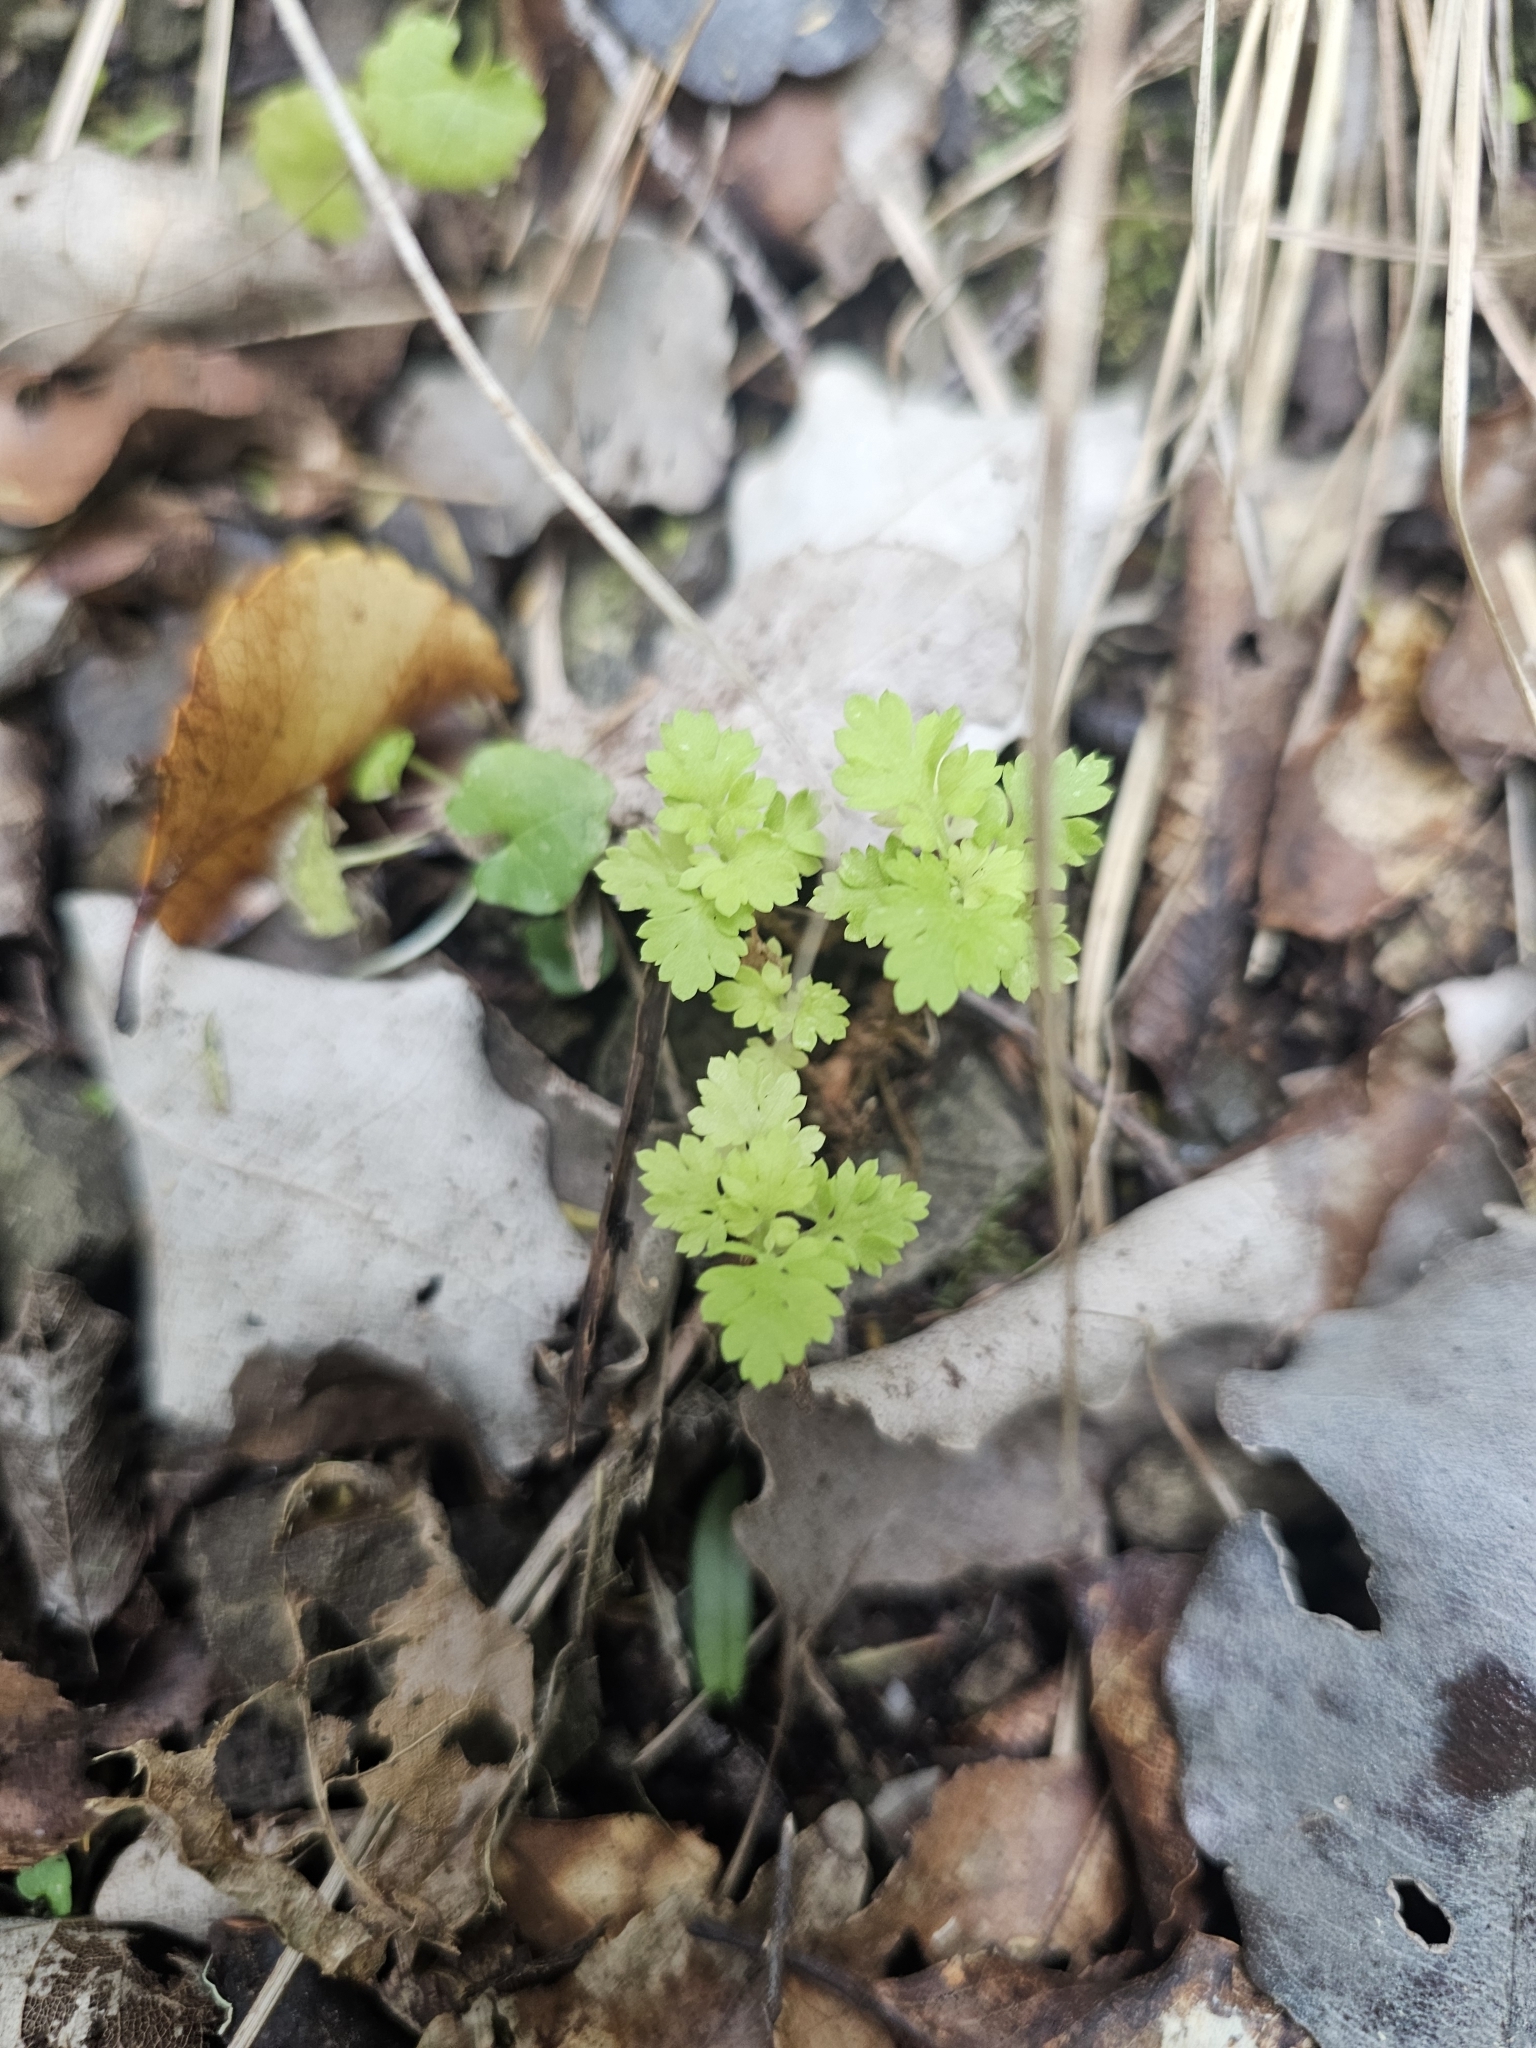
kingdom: Plantae
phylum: Tracheophyta
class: Magnoliopsida
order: Asterales
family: Asteraceae
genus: Tanacetum
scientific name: Tanacetum parthenium
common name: Feverfew
